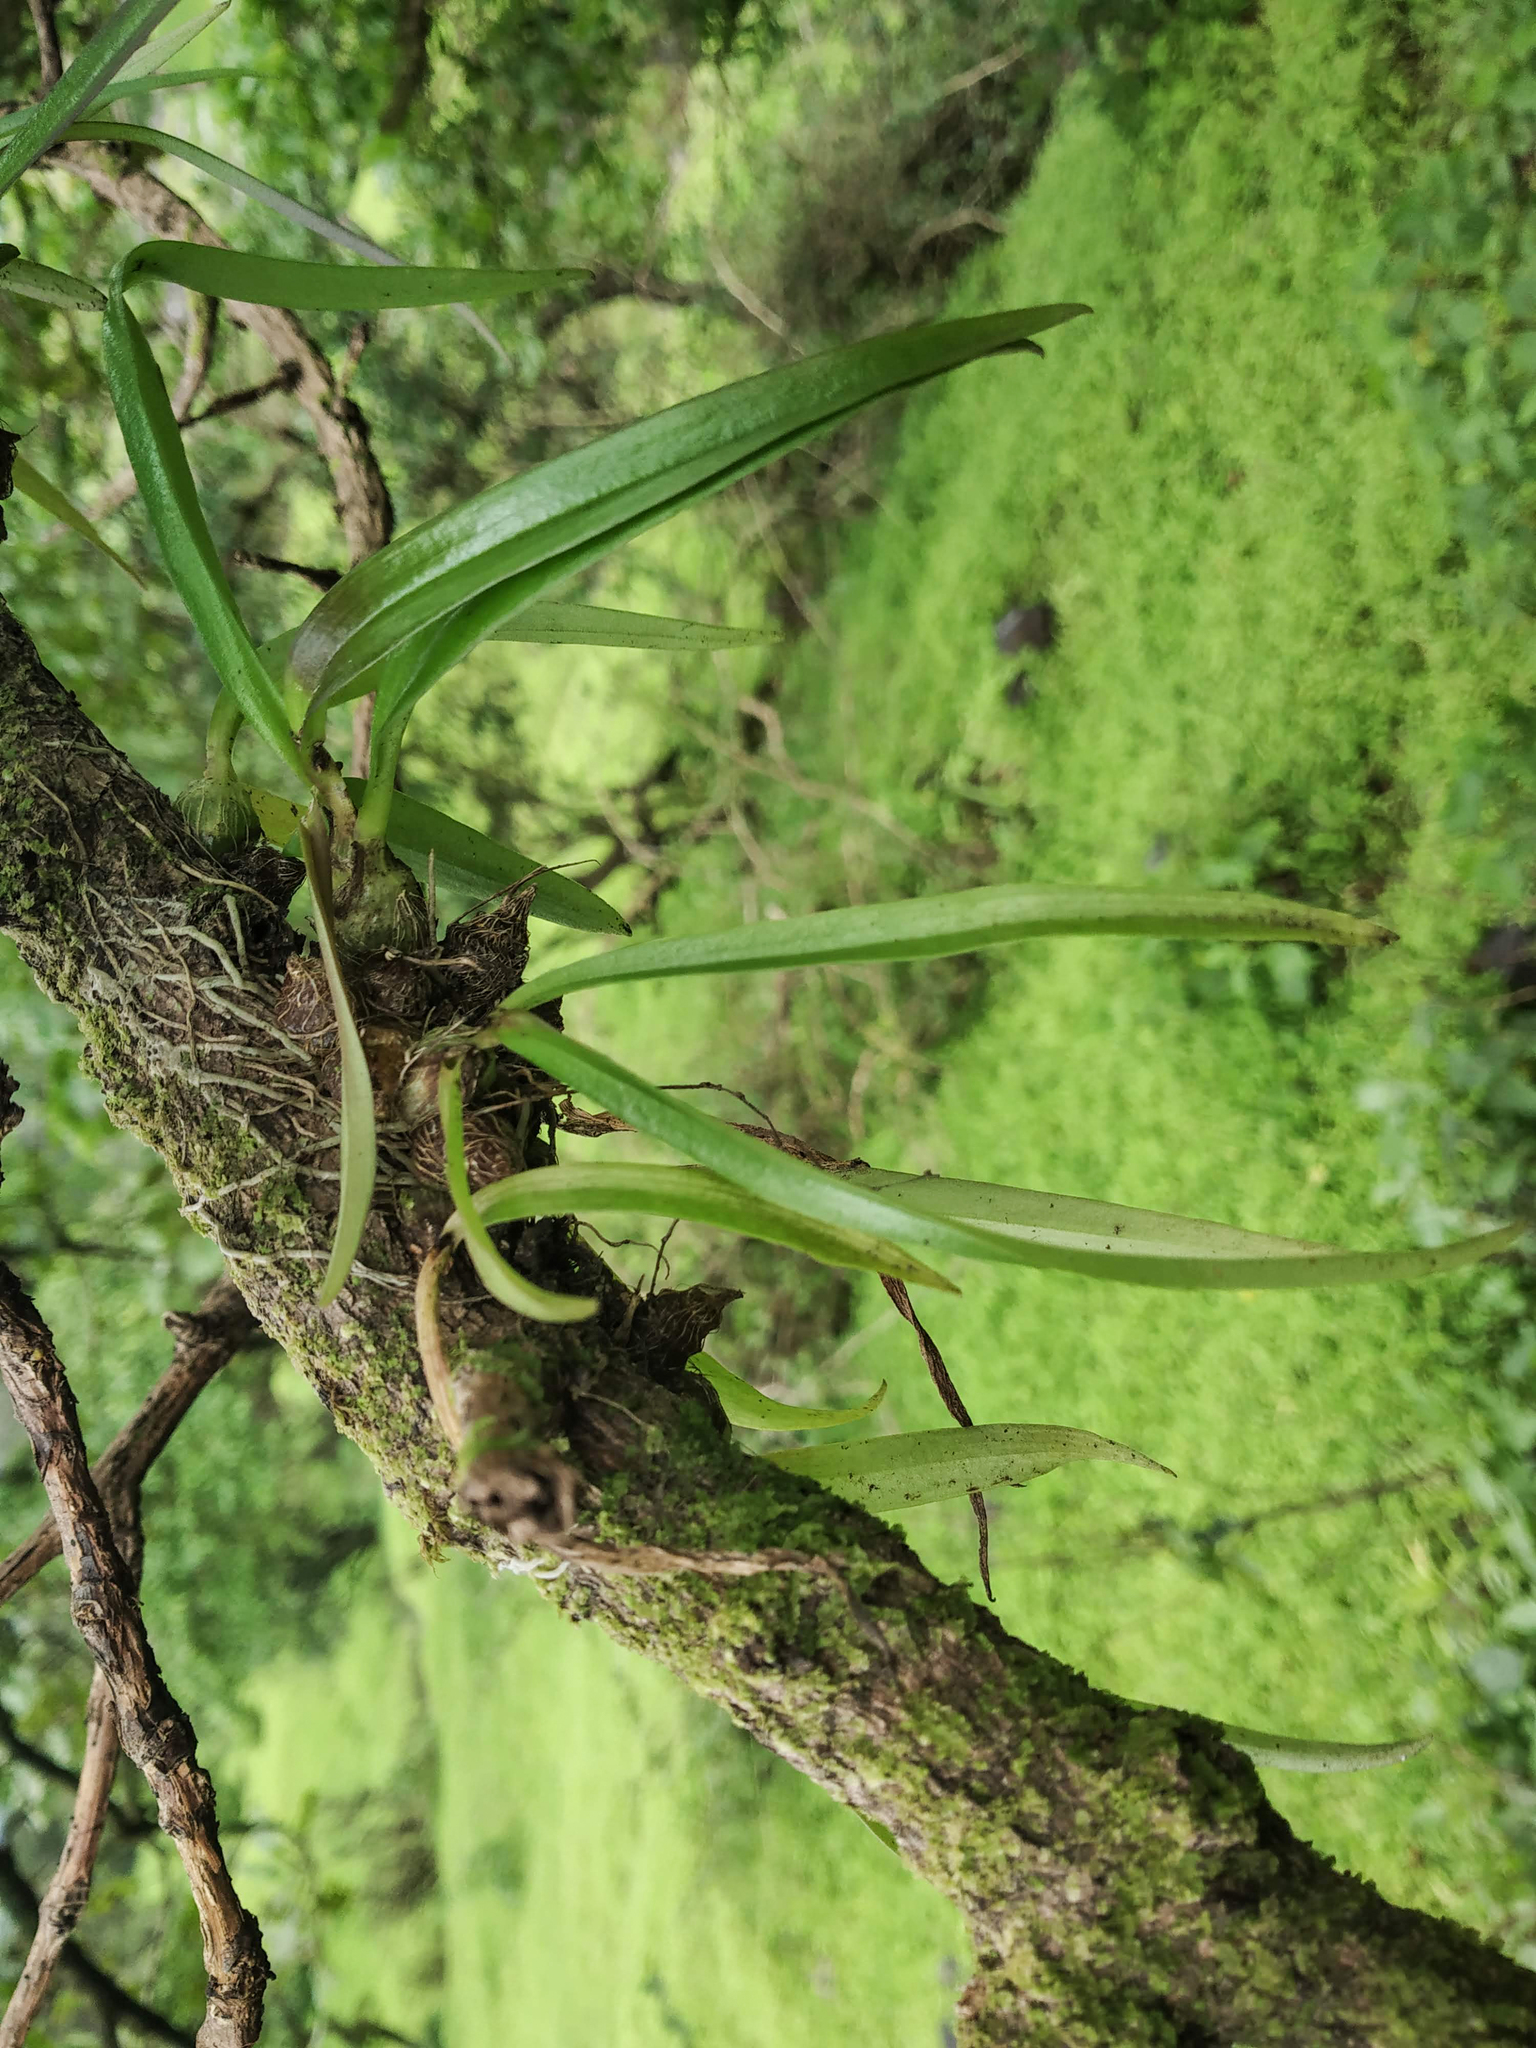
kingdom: Plantae
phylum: Tracheophyta
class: Liliopsida
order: Asparagales
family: Orchidaceae
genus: Dendrobium
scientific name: Dendrobium turbinatum
